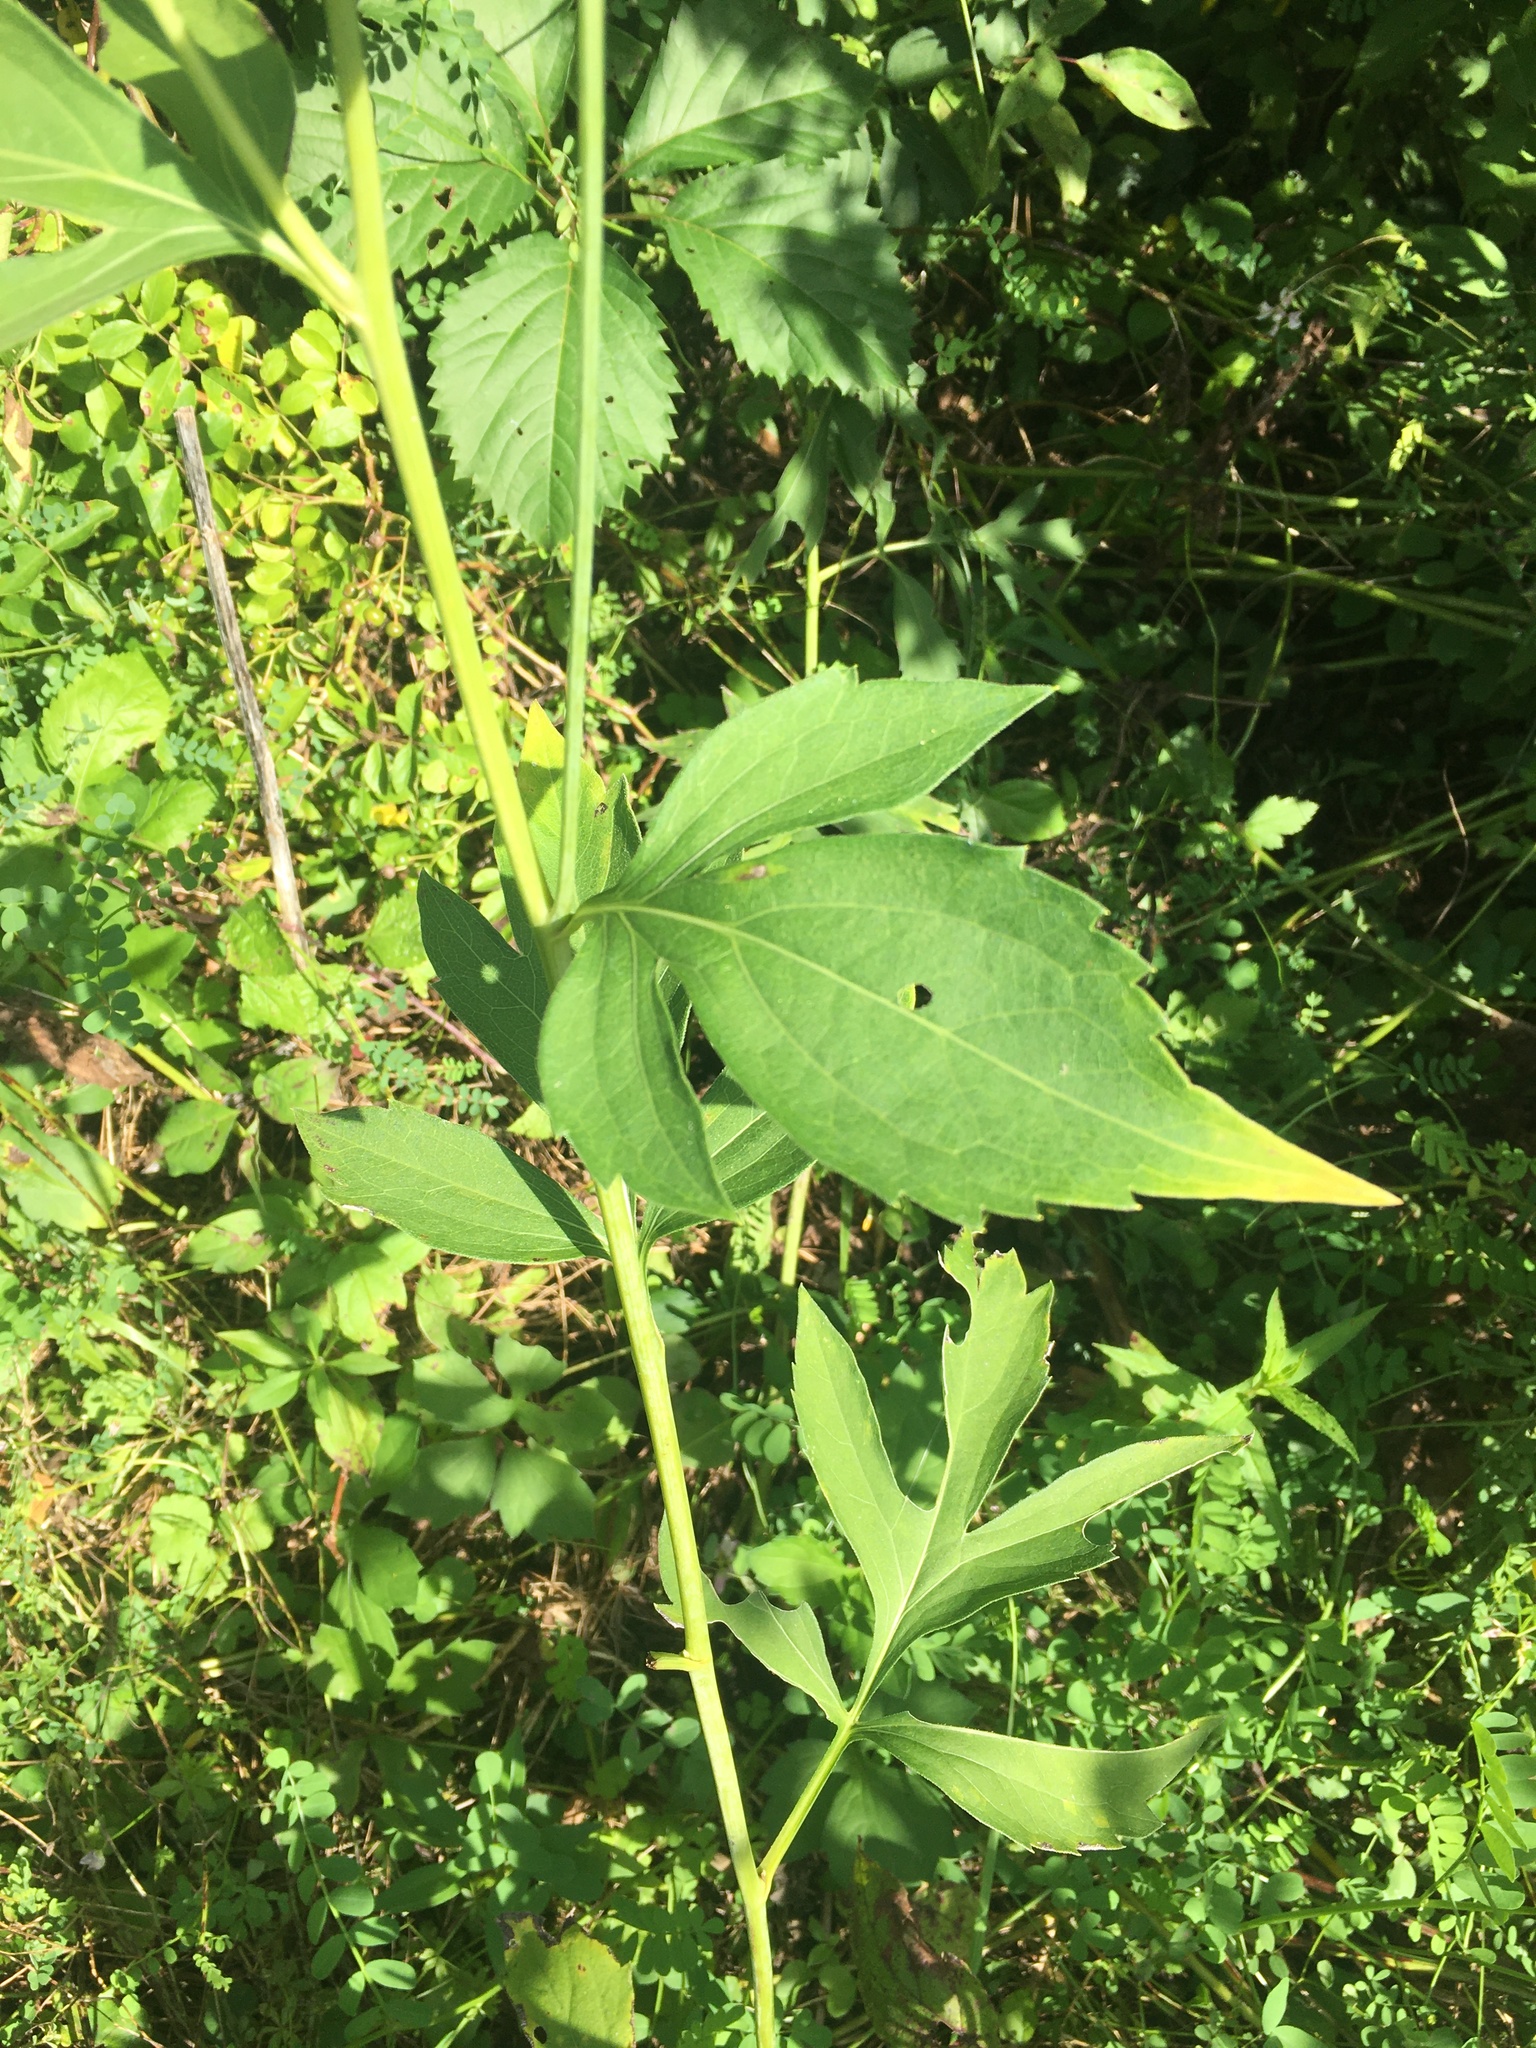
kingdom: Plantae
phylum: Tracheophyta
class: Magnoliopsida
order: Asterales
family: Asteraceae
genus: Rudbeckia
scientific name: Rudbeckia laciniata
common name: Coneflower
